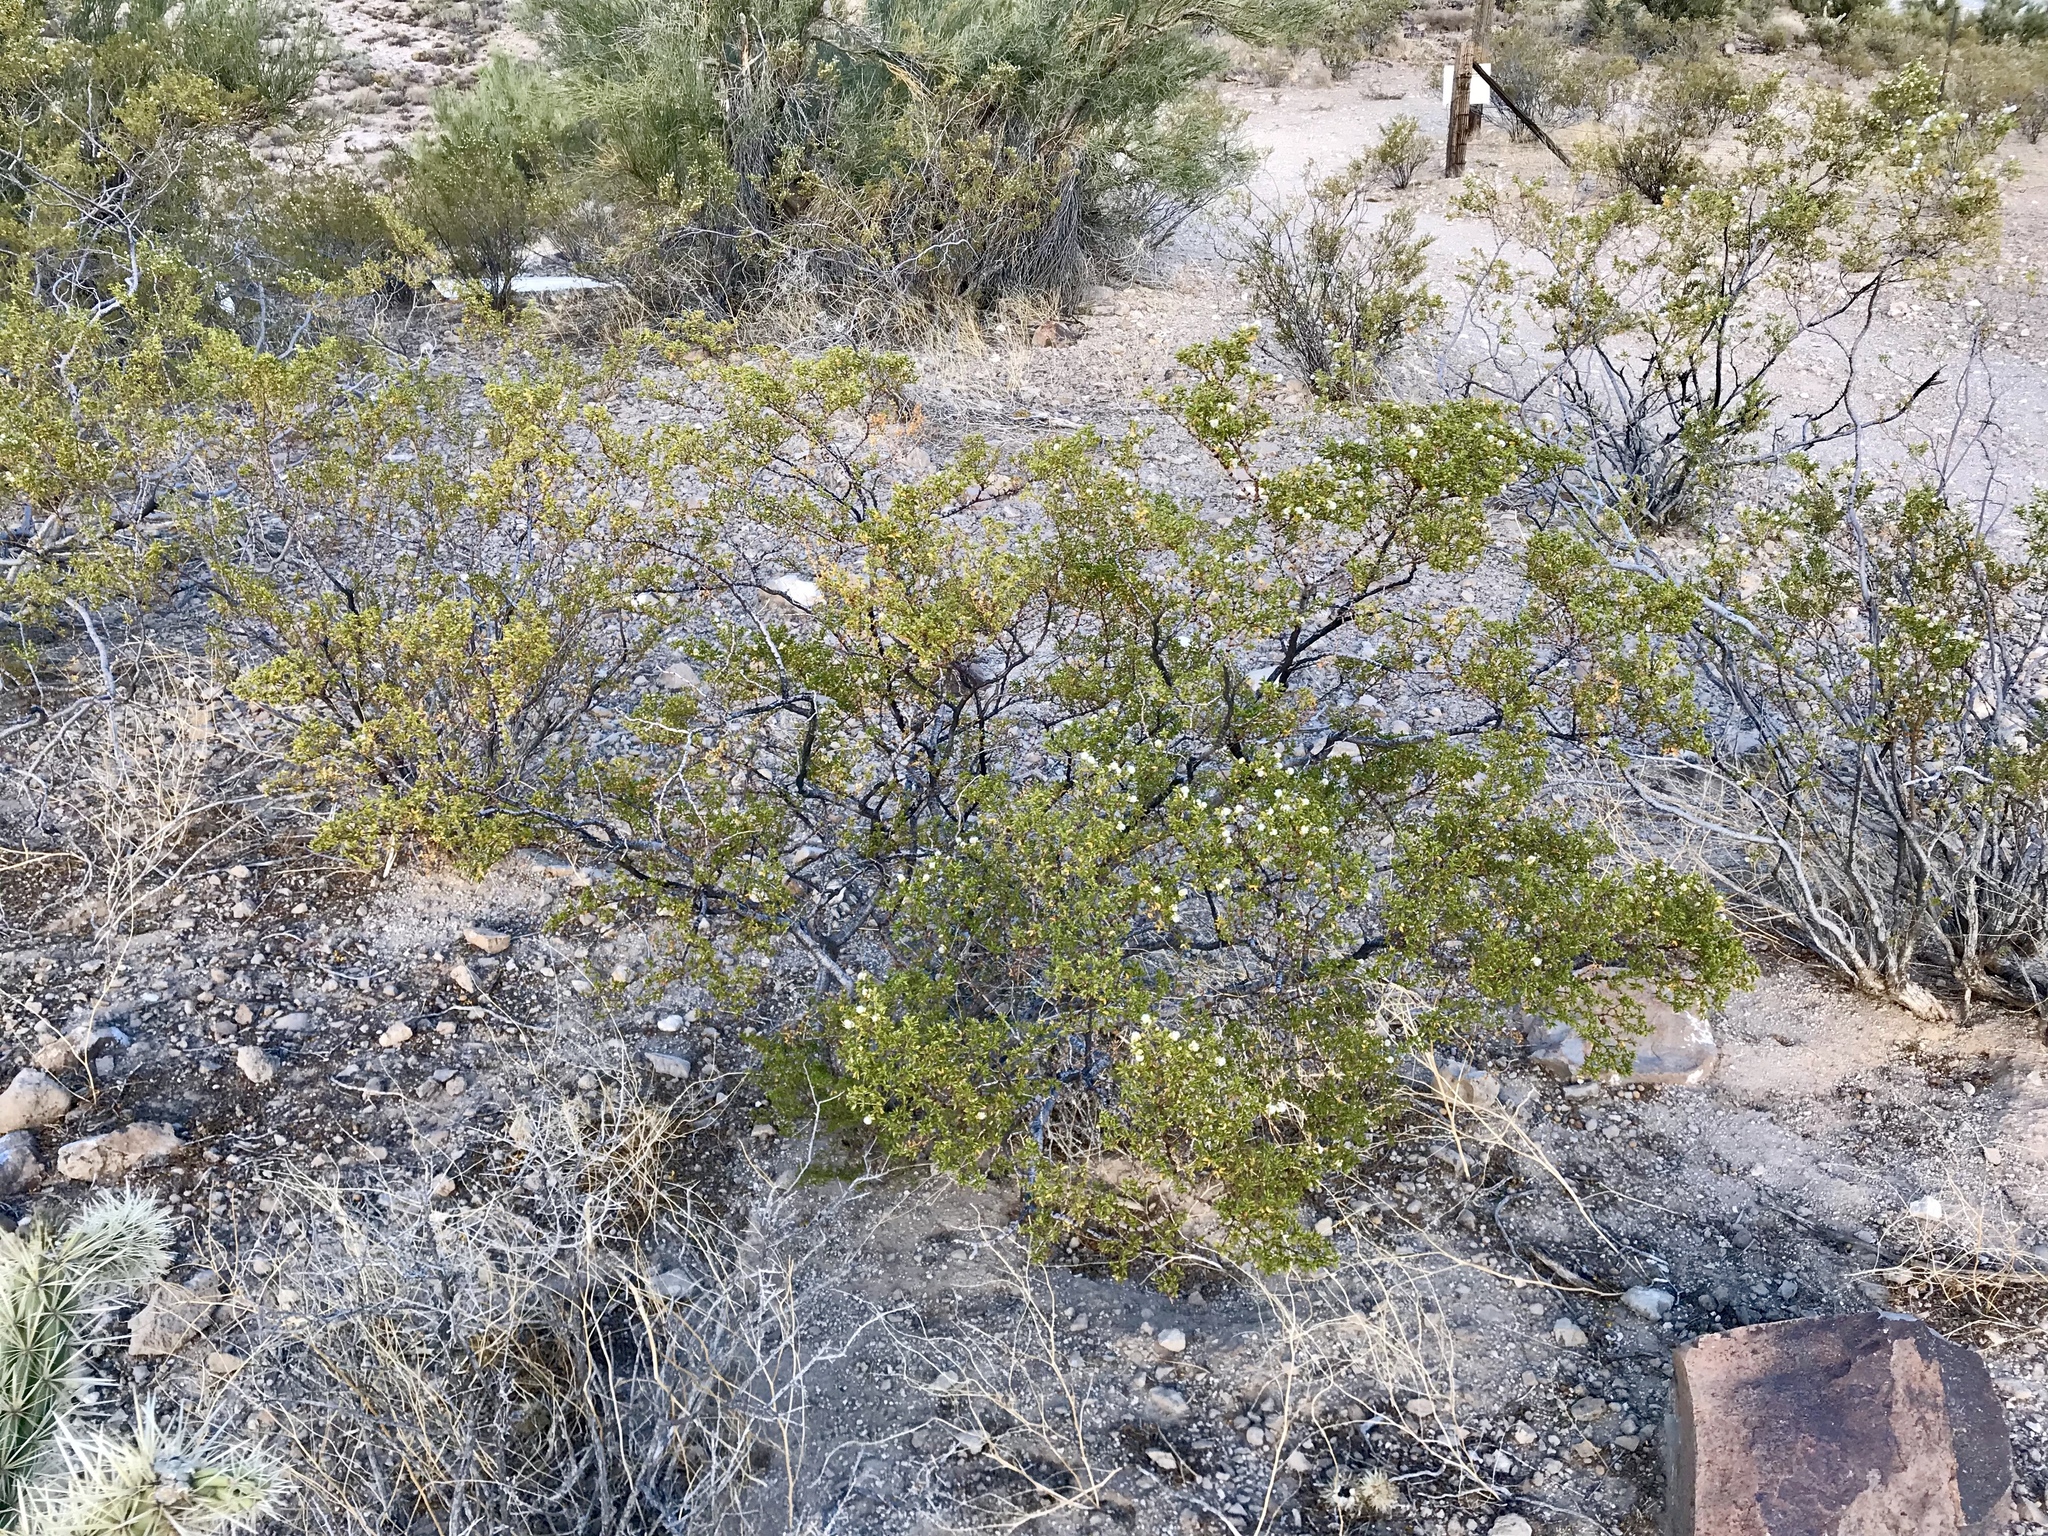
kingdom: Plantae
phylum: Tracheophyta
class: Magnoliopsida
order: Zygophyllales
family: Zygophyllaceae
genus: Larrea
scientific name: Larrea tridentata
